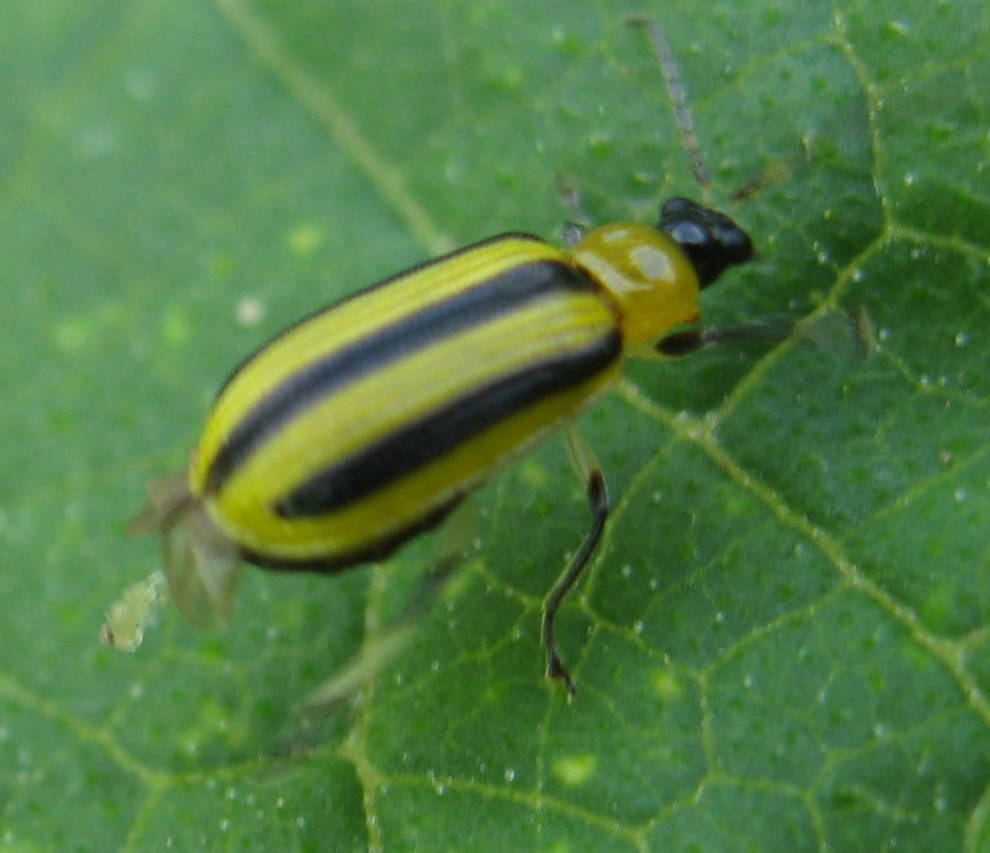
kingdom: Animalia
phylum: Arthropoda
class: Insecta
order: Coleoptera
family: Chrysomelidae
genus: Acalymma
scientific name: Acalymma vittatum
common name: Striped cucumber beetle
